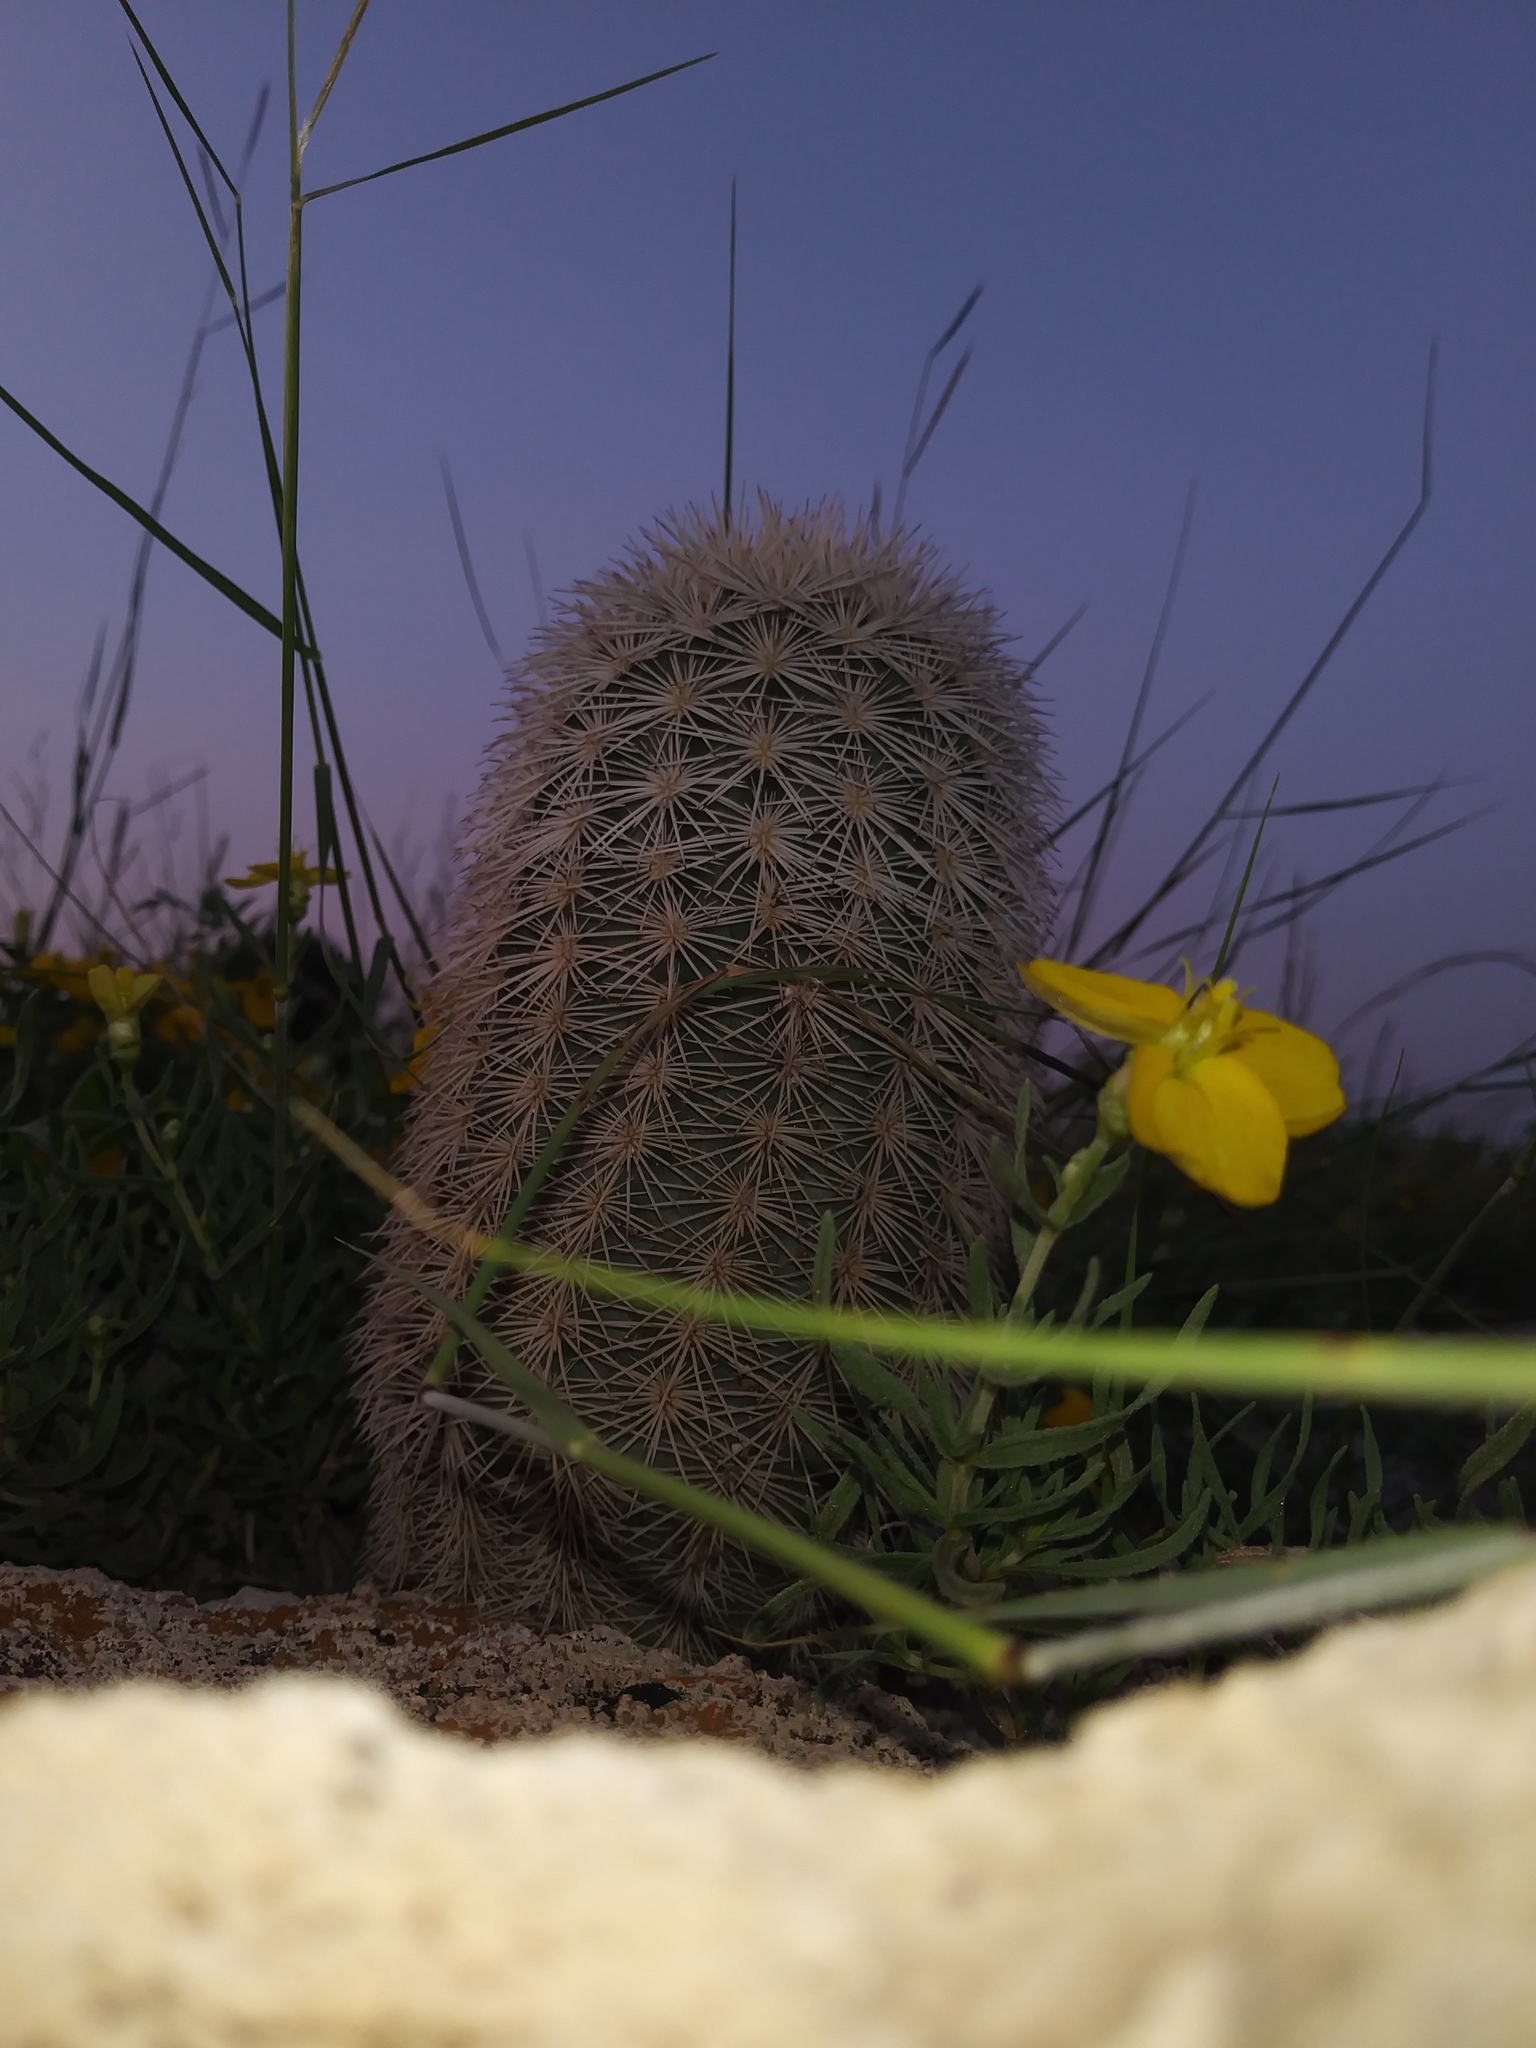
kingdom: Plantae
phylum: Tracheophyta
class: Magnoliopsida
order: Caryophyllales
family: Cactaceae
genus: Echinocereus
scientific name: Echinocereus dasyacanthus
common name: Spiny hedgehog cactus
